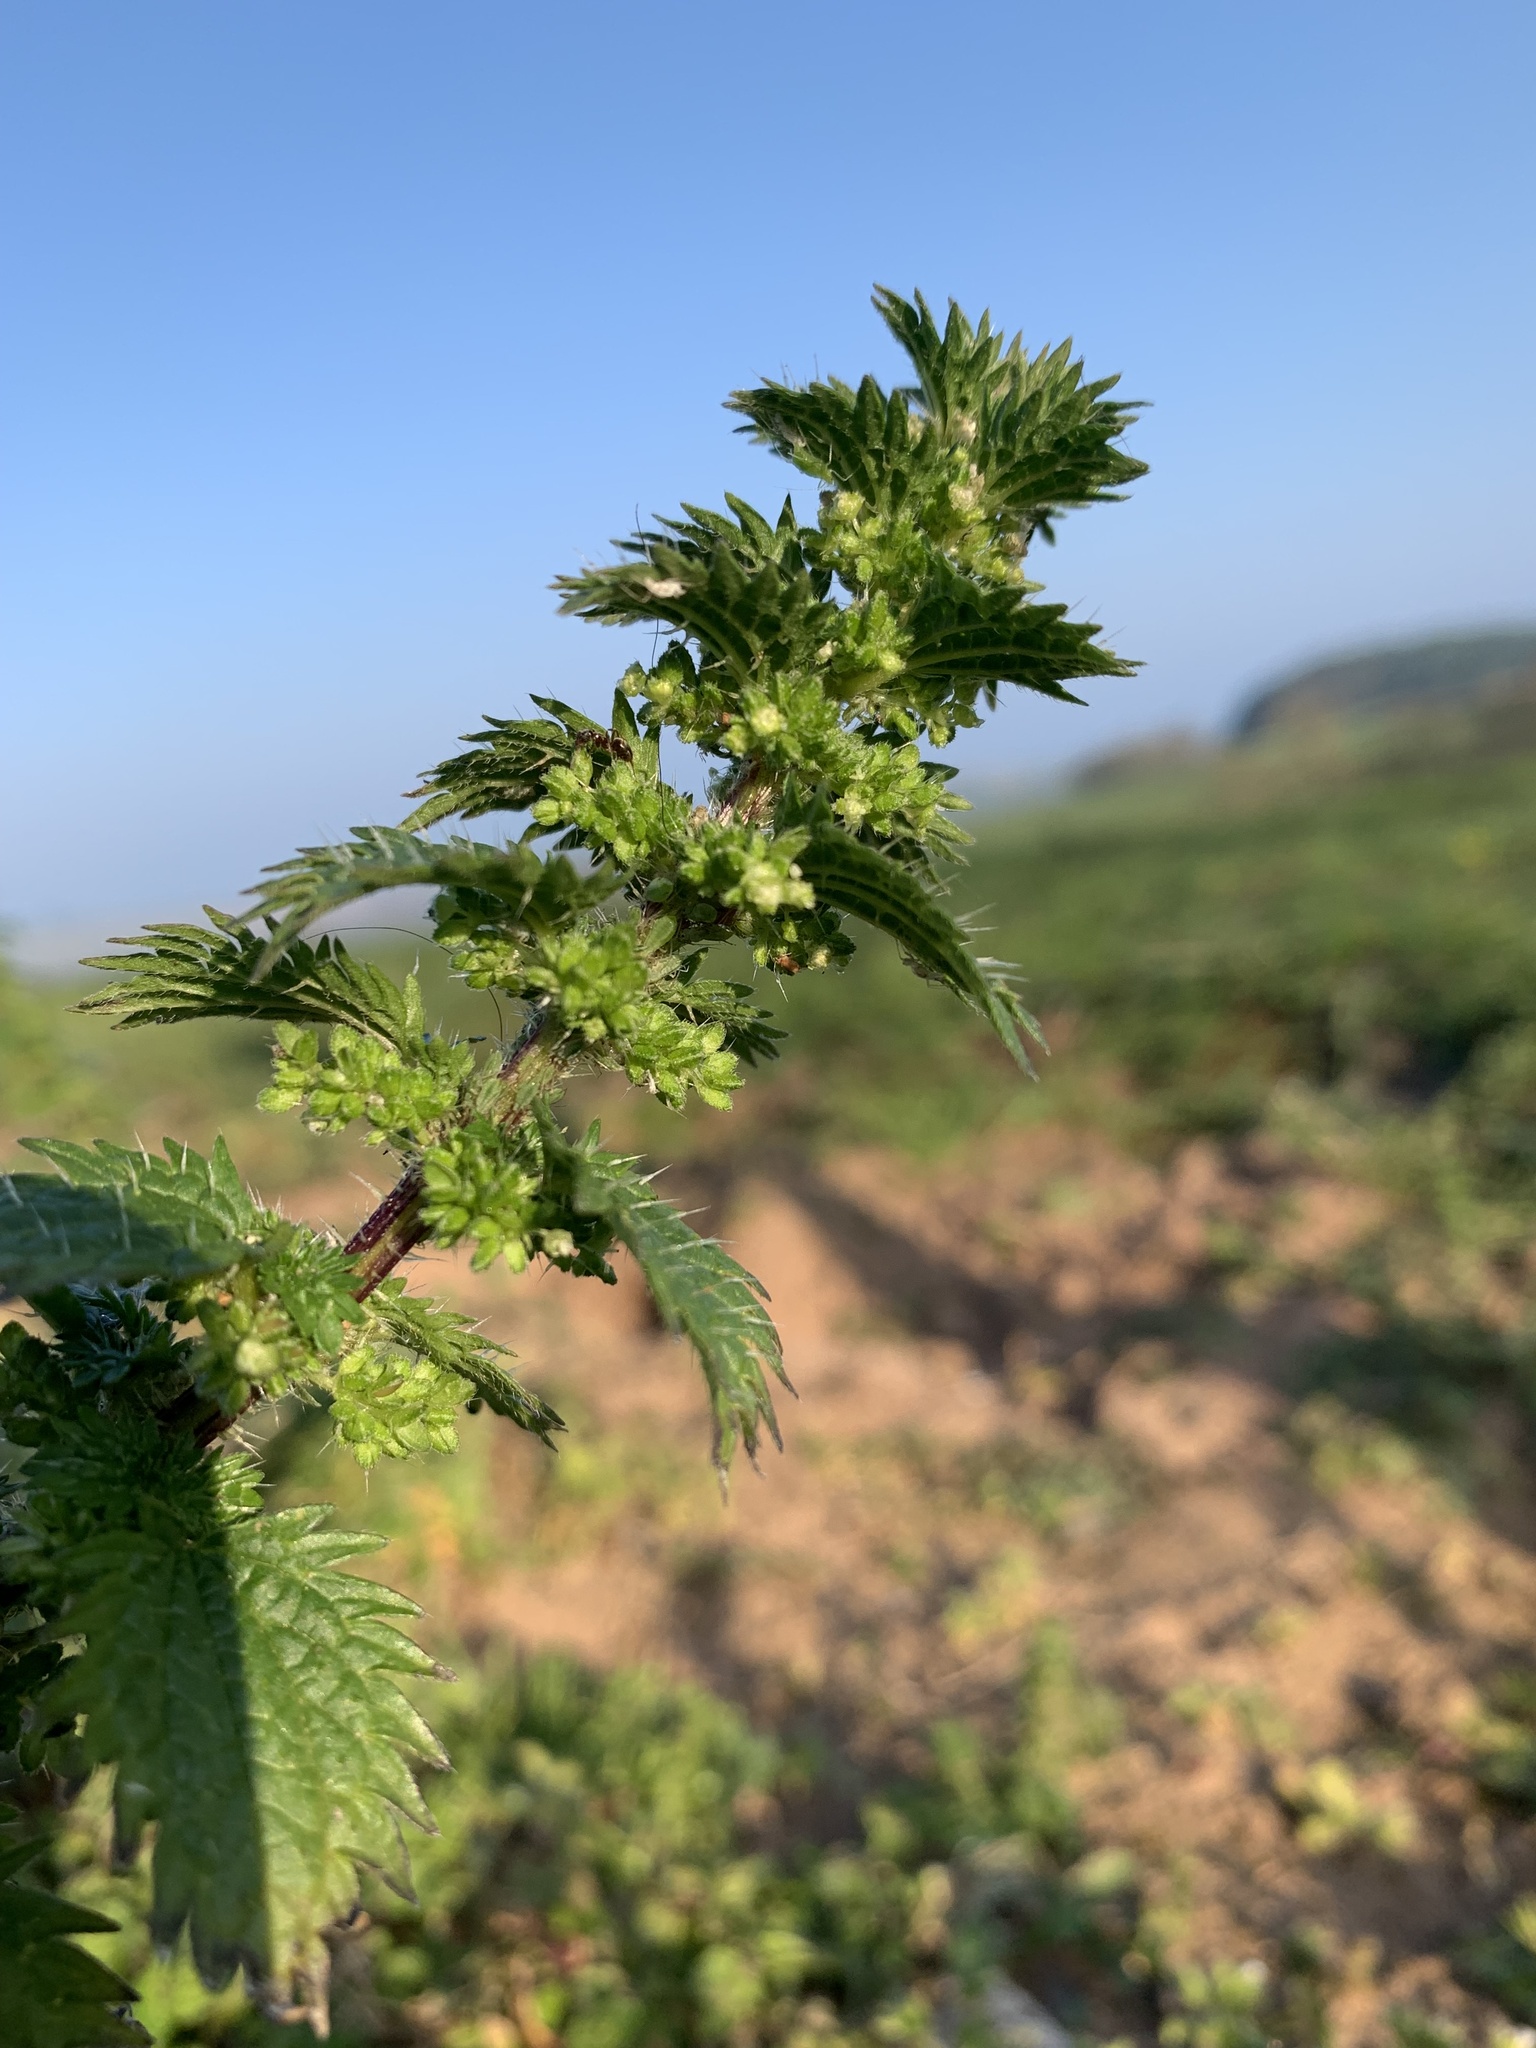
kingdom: Plantae
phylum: Tracheophyta
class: Magnoliopsida
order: Rosales
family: Urticaceae
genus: Urtica
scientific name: Urtica urens
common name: Dwarf nettle
